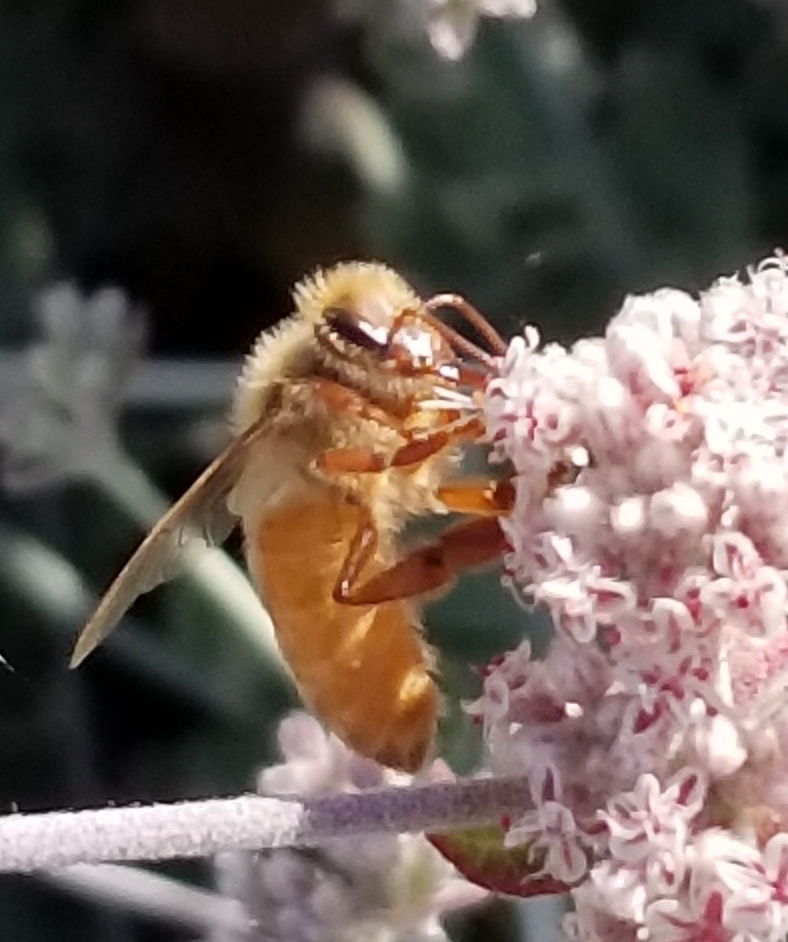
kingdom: Animalia
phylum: Arthropoda
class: Insecta
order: Hymenoptera
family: Apidae
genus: Apis
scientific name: Apis mellifera
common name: Honey bee
